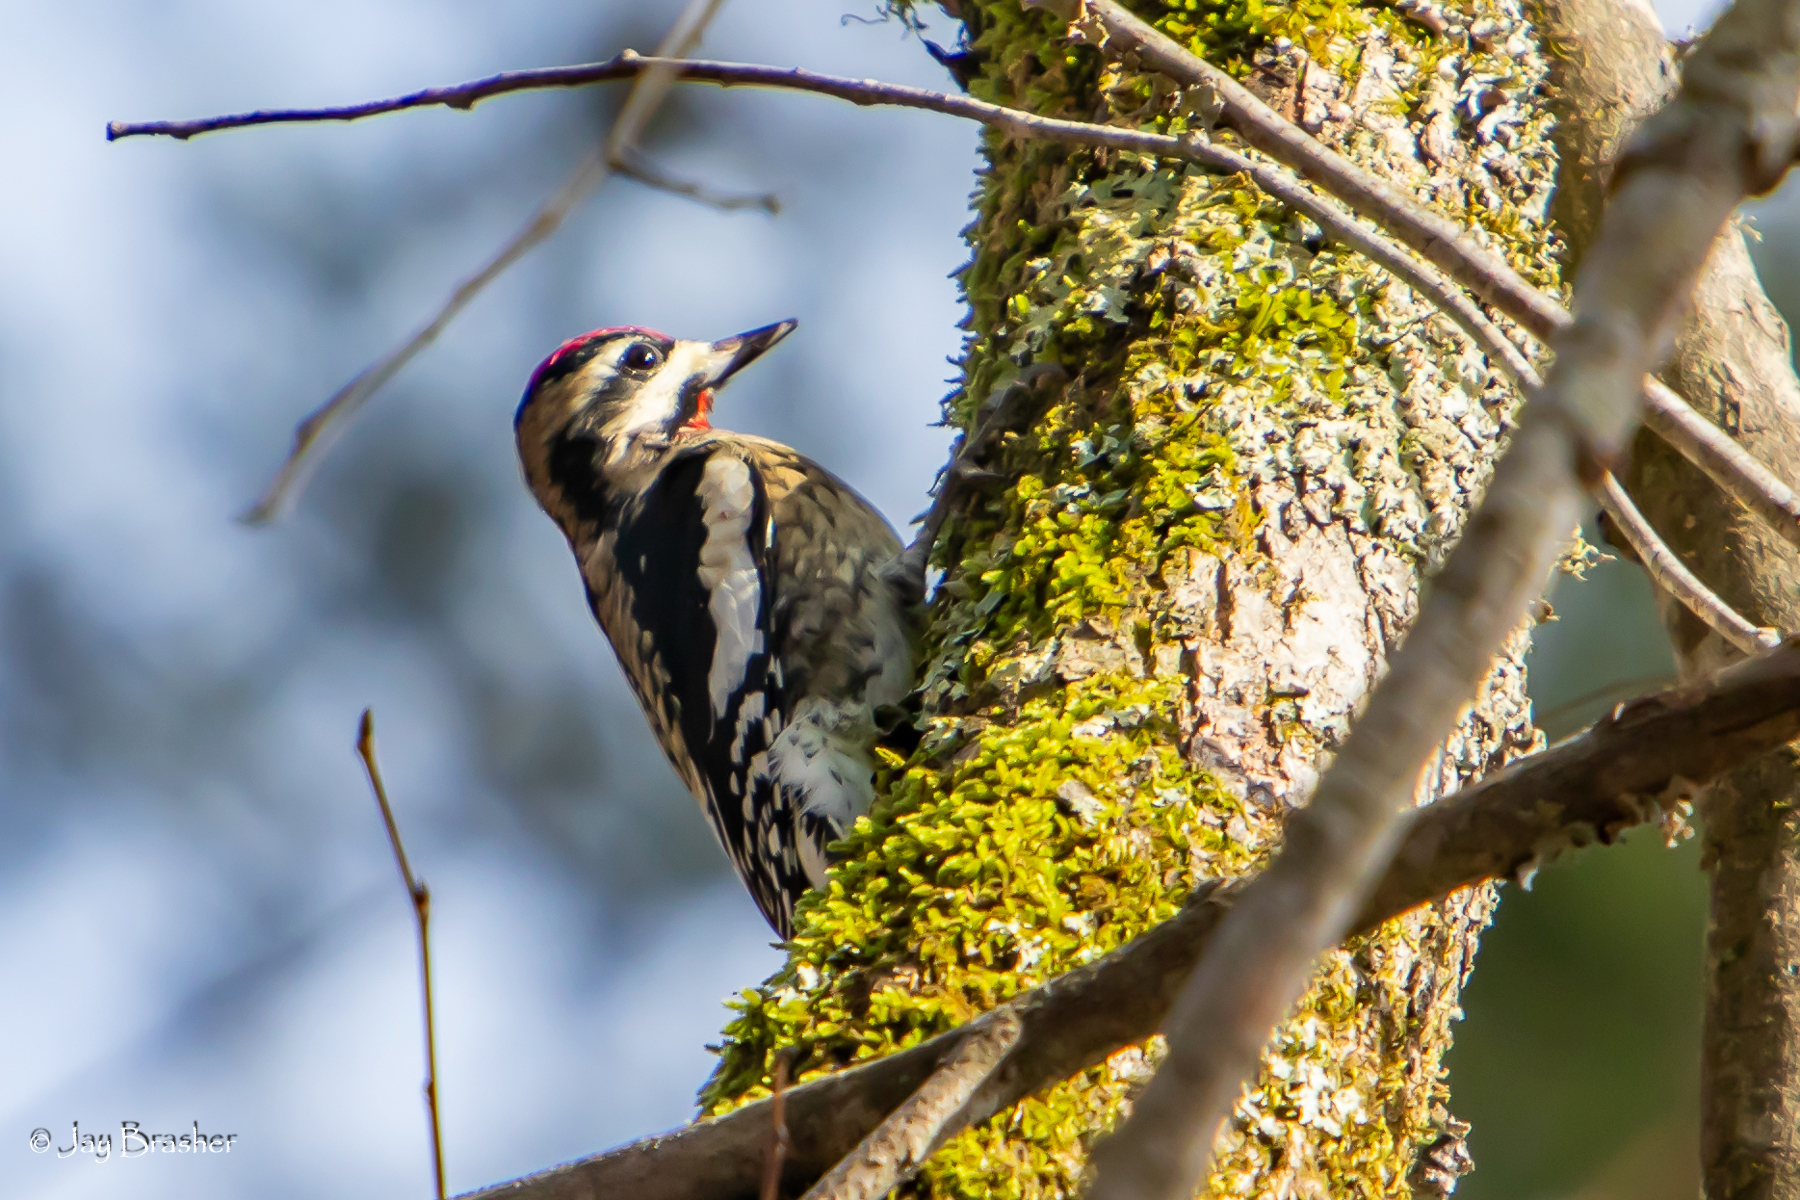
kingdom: Animalia
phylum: Chordata
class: Aves
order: Piciformes
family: Picidae
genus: Sphyrapicus
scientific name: Sphyrapicus varius
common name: Yellow-bellied sapsucker
